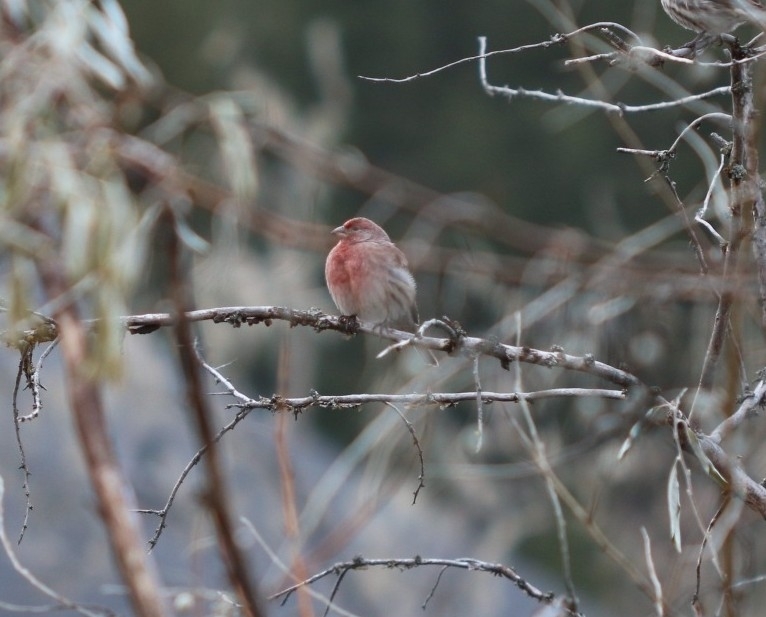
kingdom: Animalia
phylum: Chordata
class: Aves
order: Passeriformes
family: Fringillidae
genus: Haemorhous
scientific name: Haemorhous mexicanus
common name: House finch
